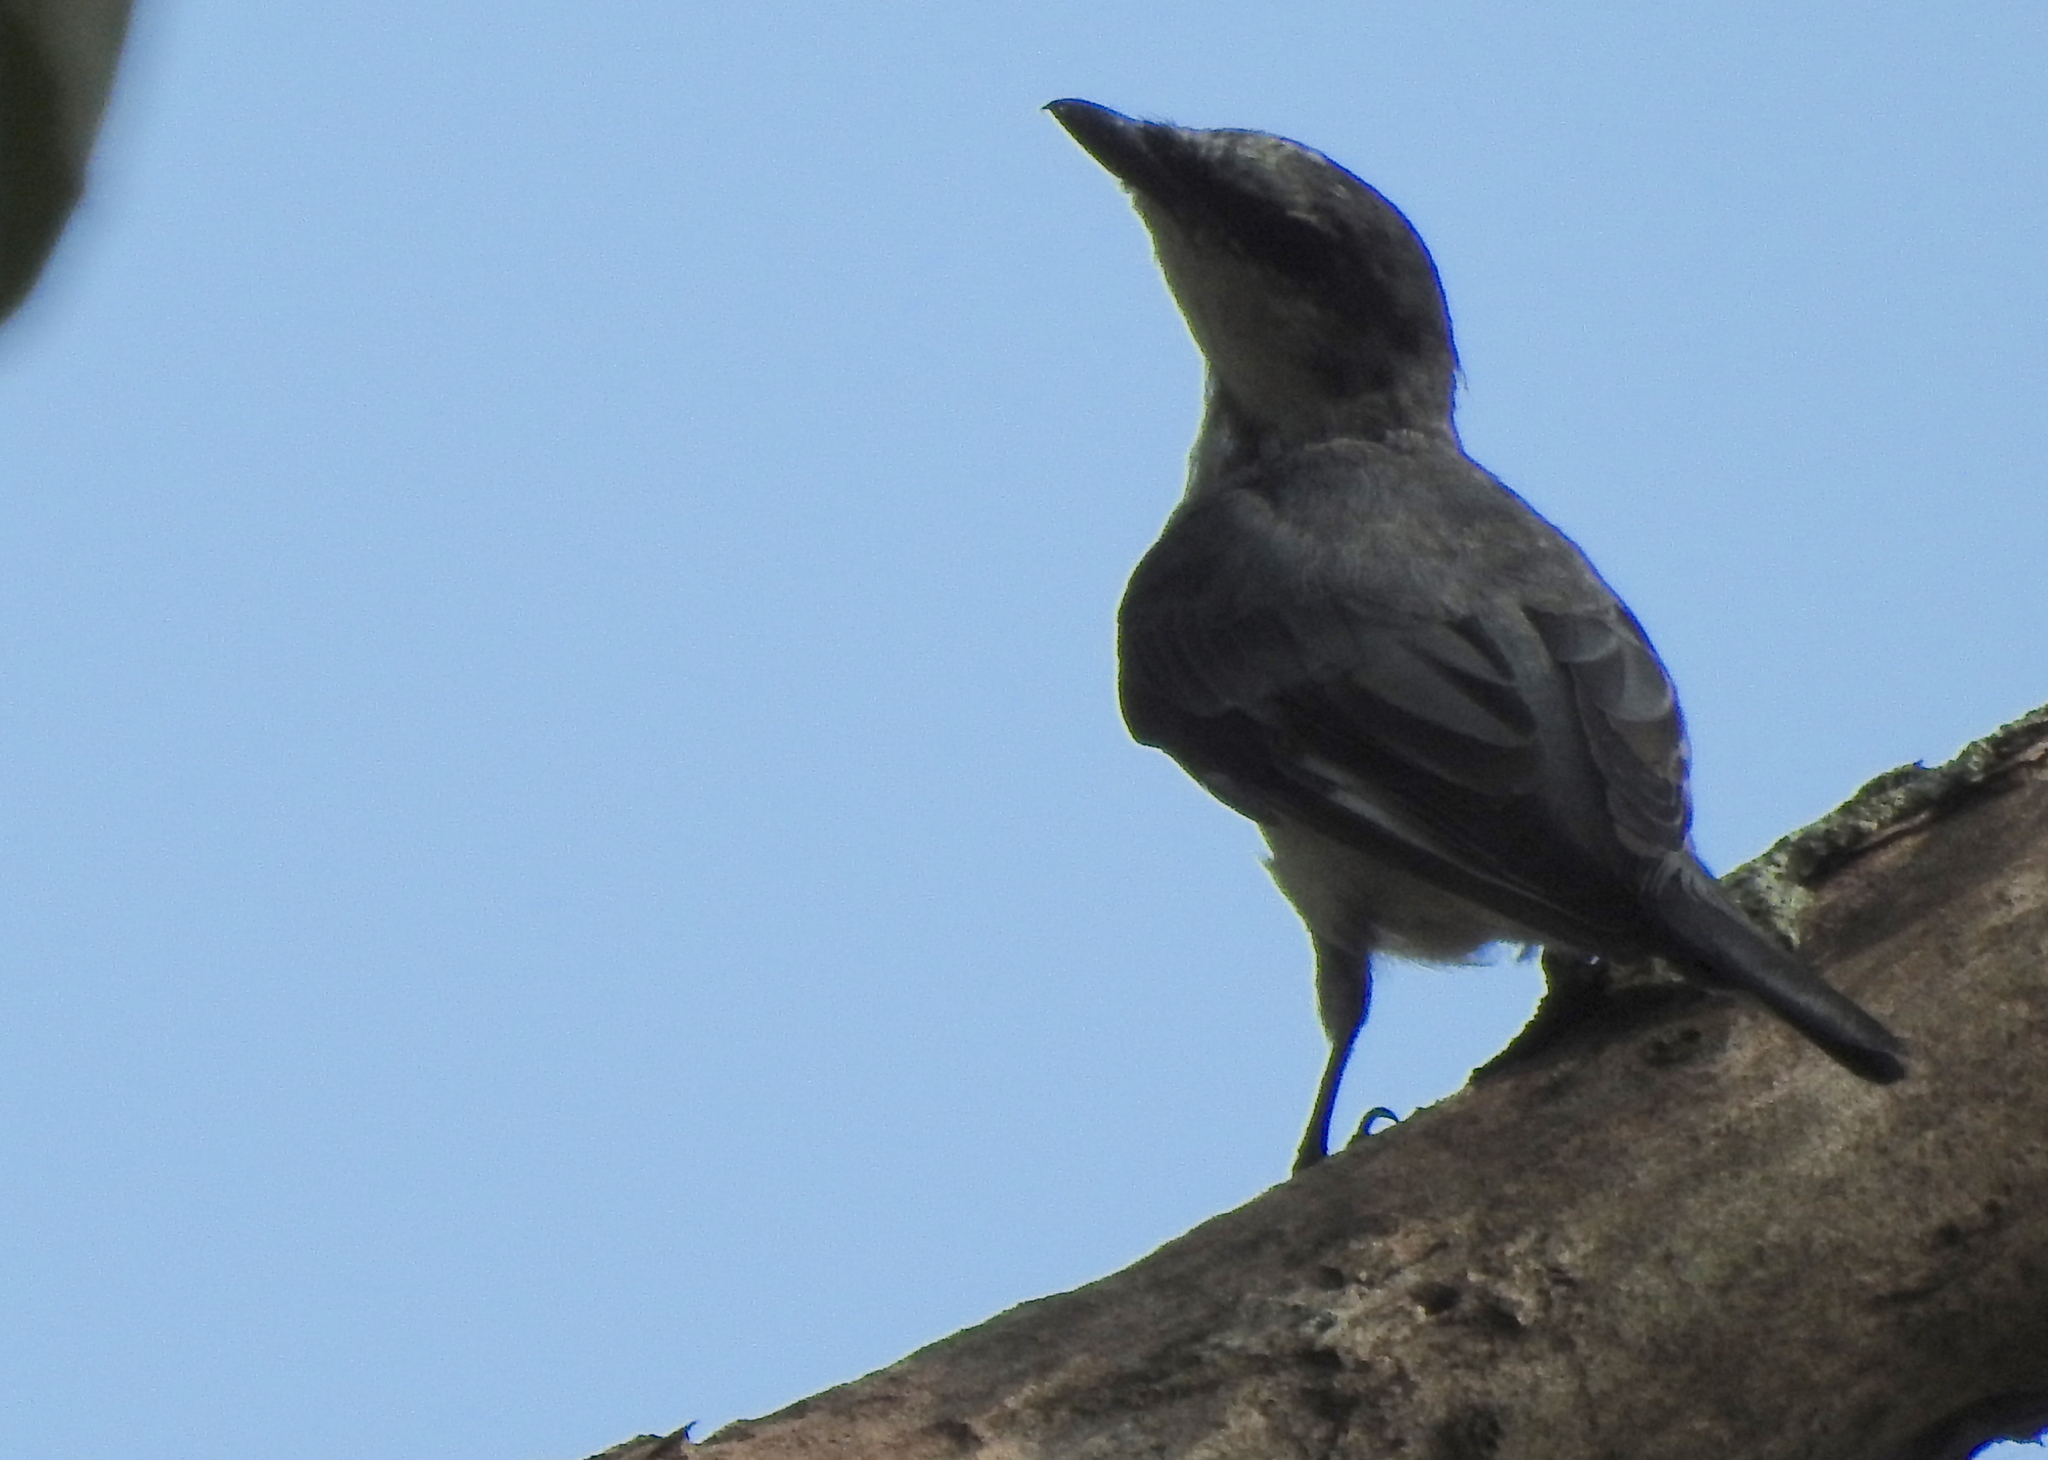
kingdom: Animalia
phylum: Chordata
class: Aves
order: Passeriformes
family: Campephagidae
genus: Pericrocotus
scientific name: Pericrocotus divaricatus
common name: Ashy minivet
